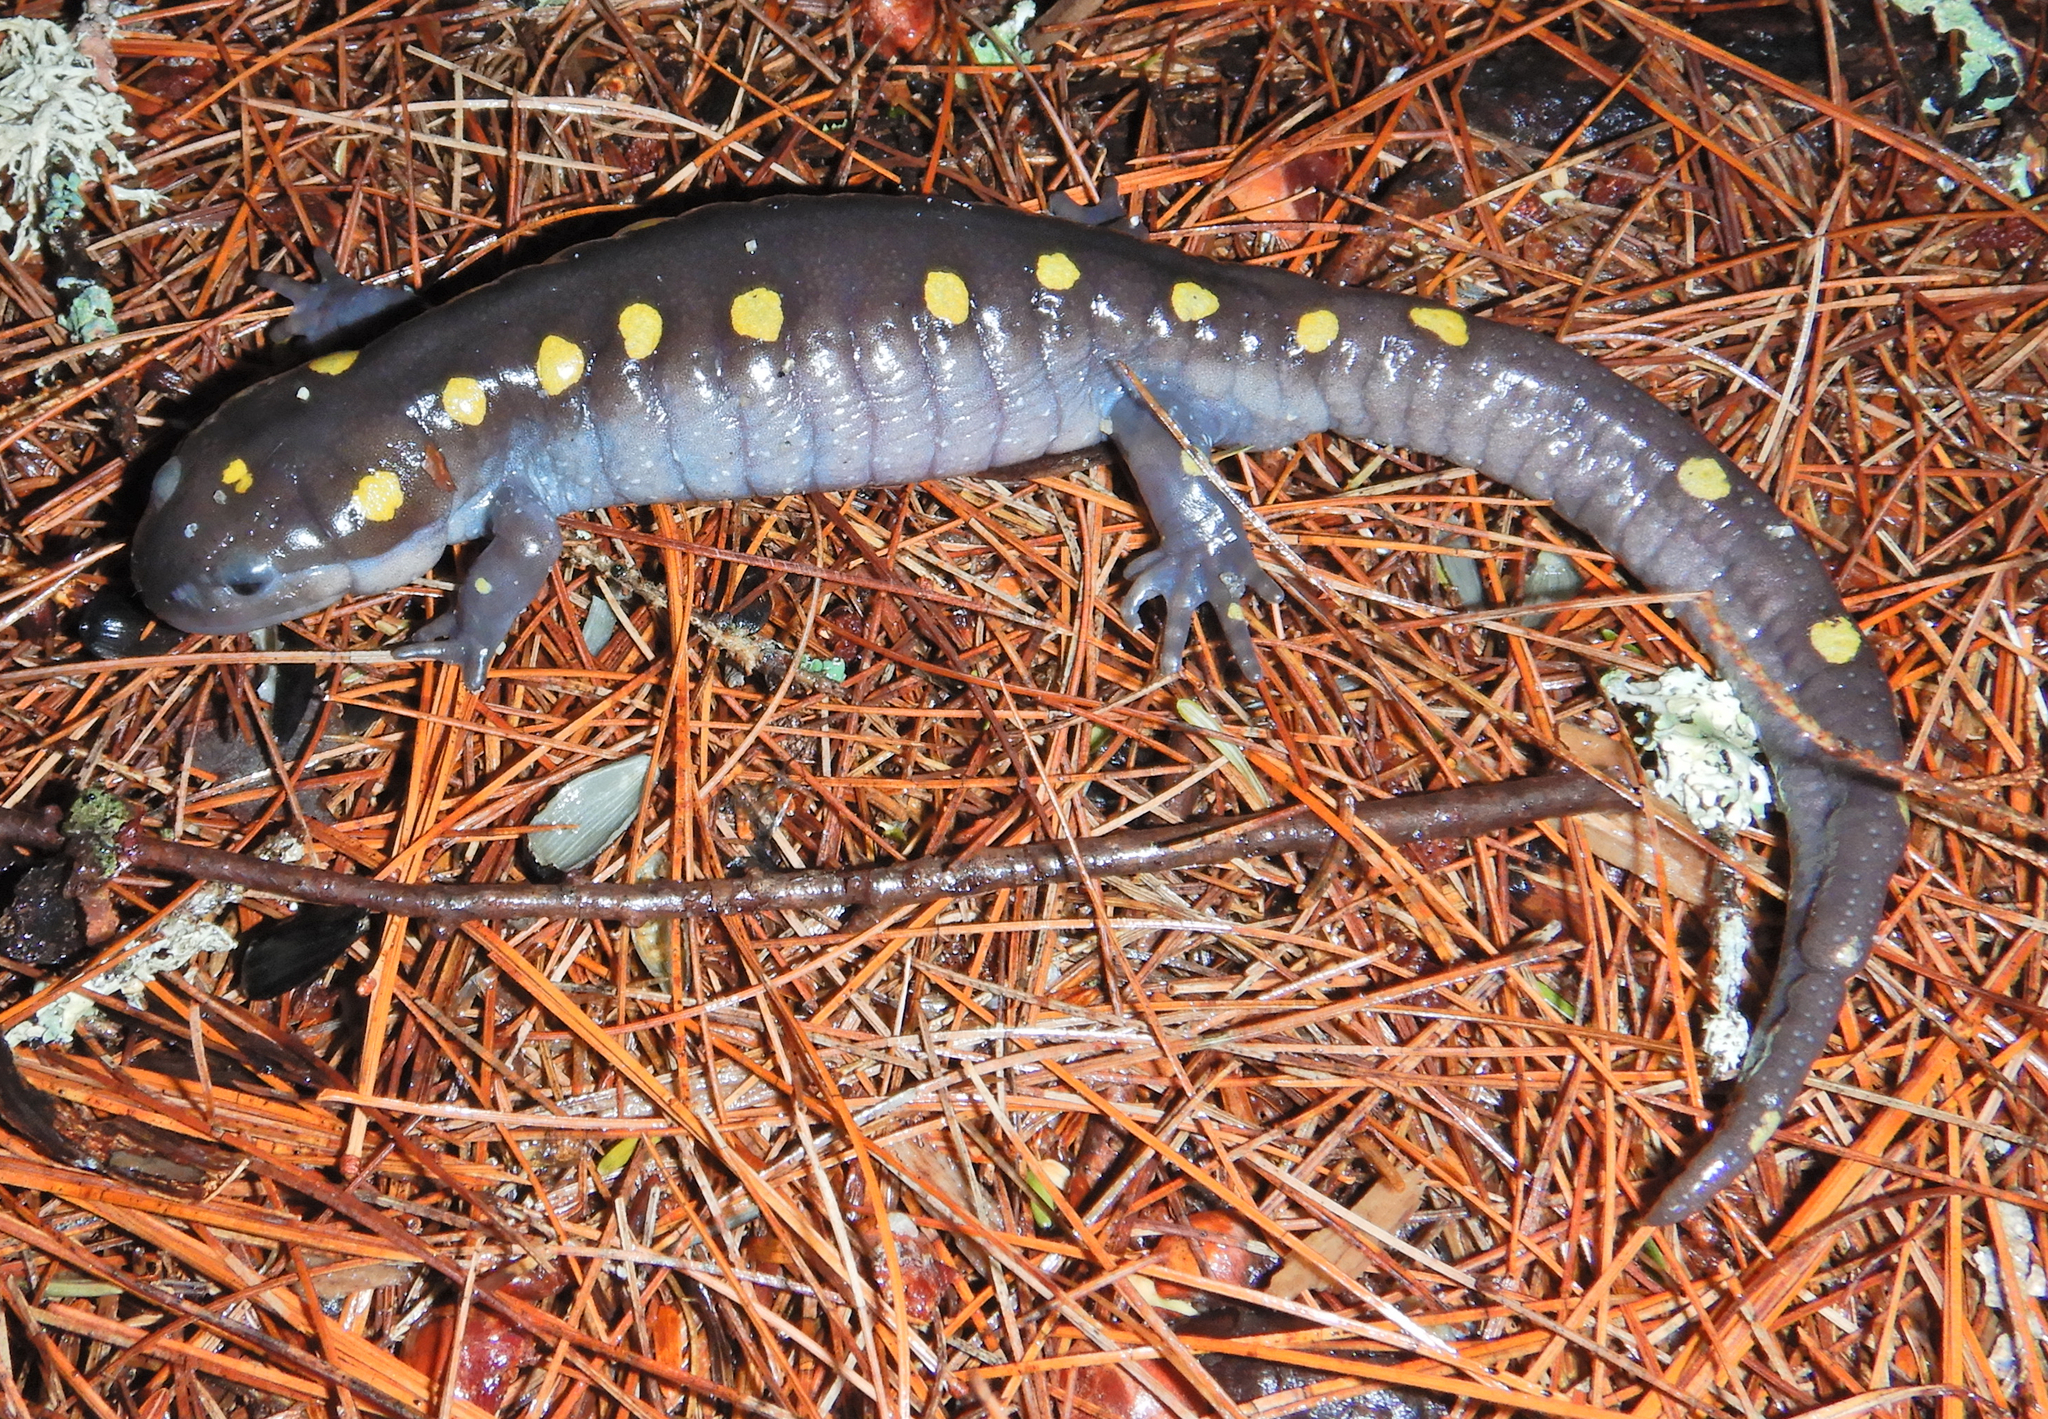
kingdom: Animalia
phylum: Chordata
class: Amphibia
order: Caudata
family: Ambystomatidae
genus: Ambystoma
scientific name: Ambystoma maculatum
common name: Spotted salamander
